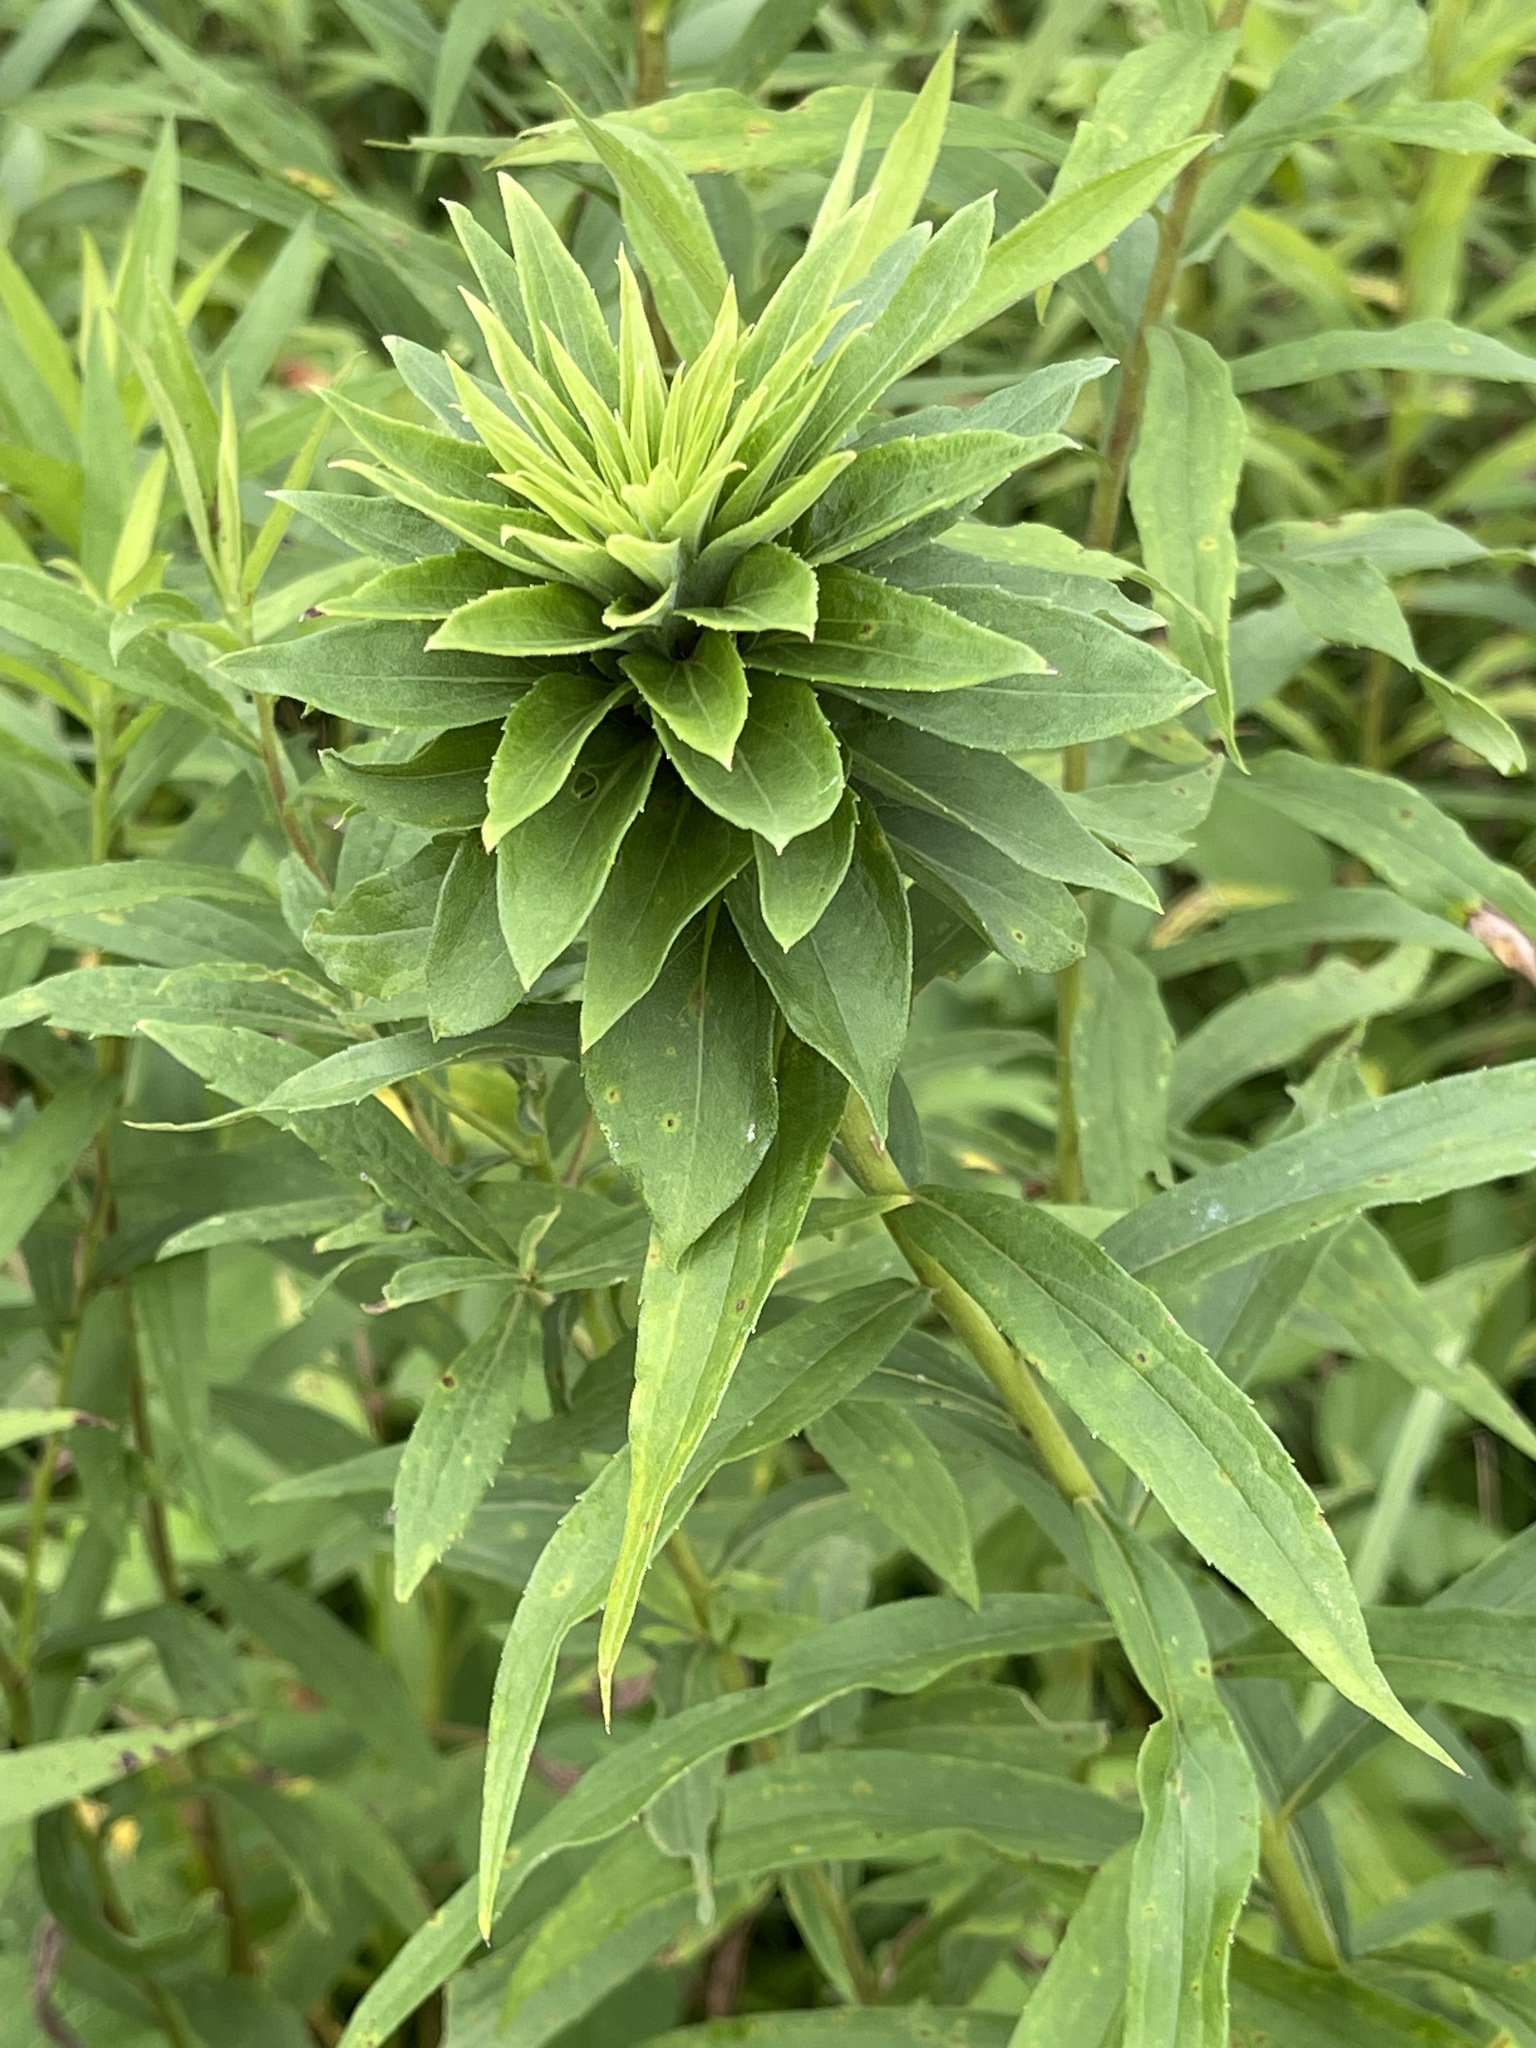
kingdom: Animalia
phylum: Arthropoda
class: Insecta
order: Diptera
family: Cecidomyiidae
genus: Rhopalomyia
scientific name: Rhopalomyia solidaginis
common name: Goldenrod bunch gall midge
